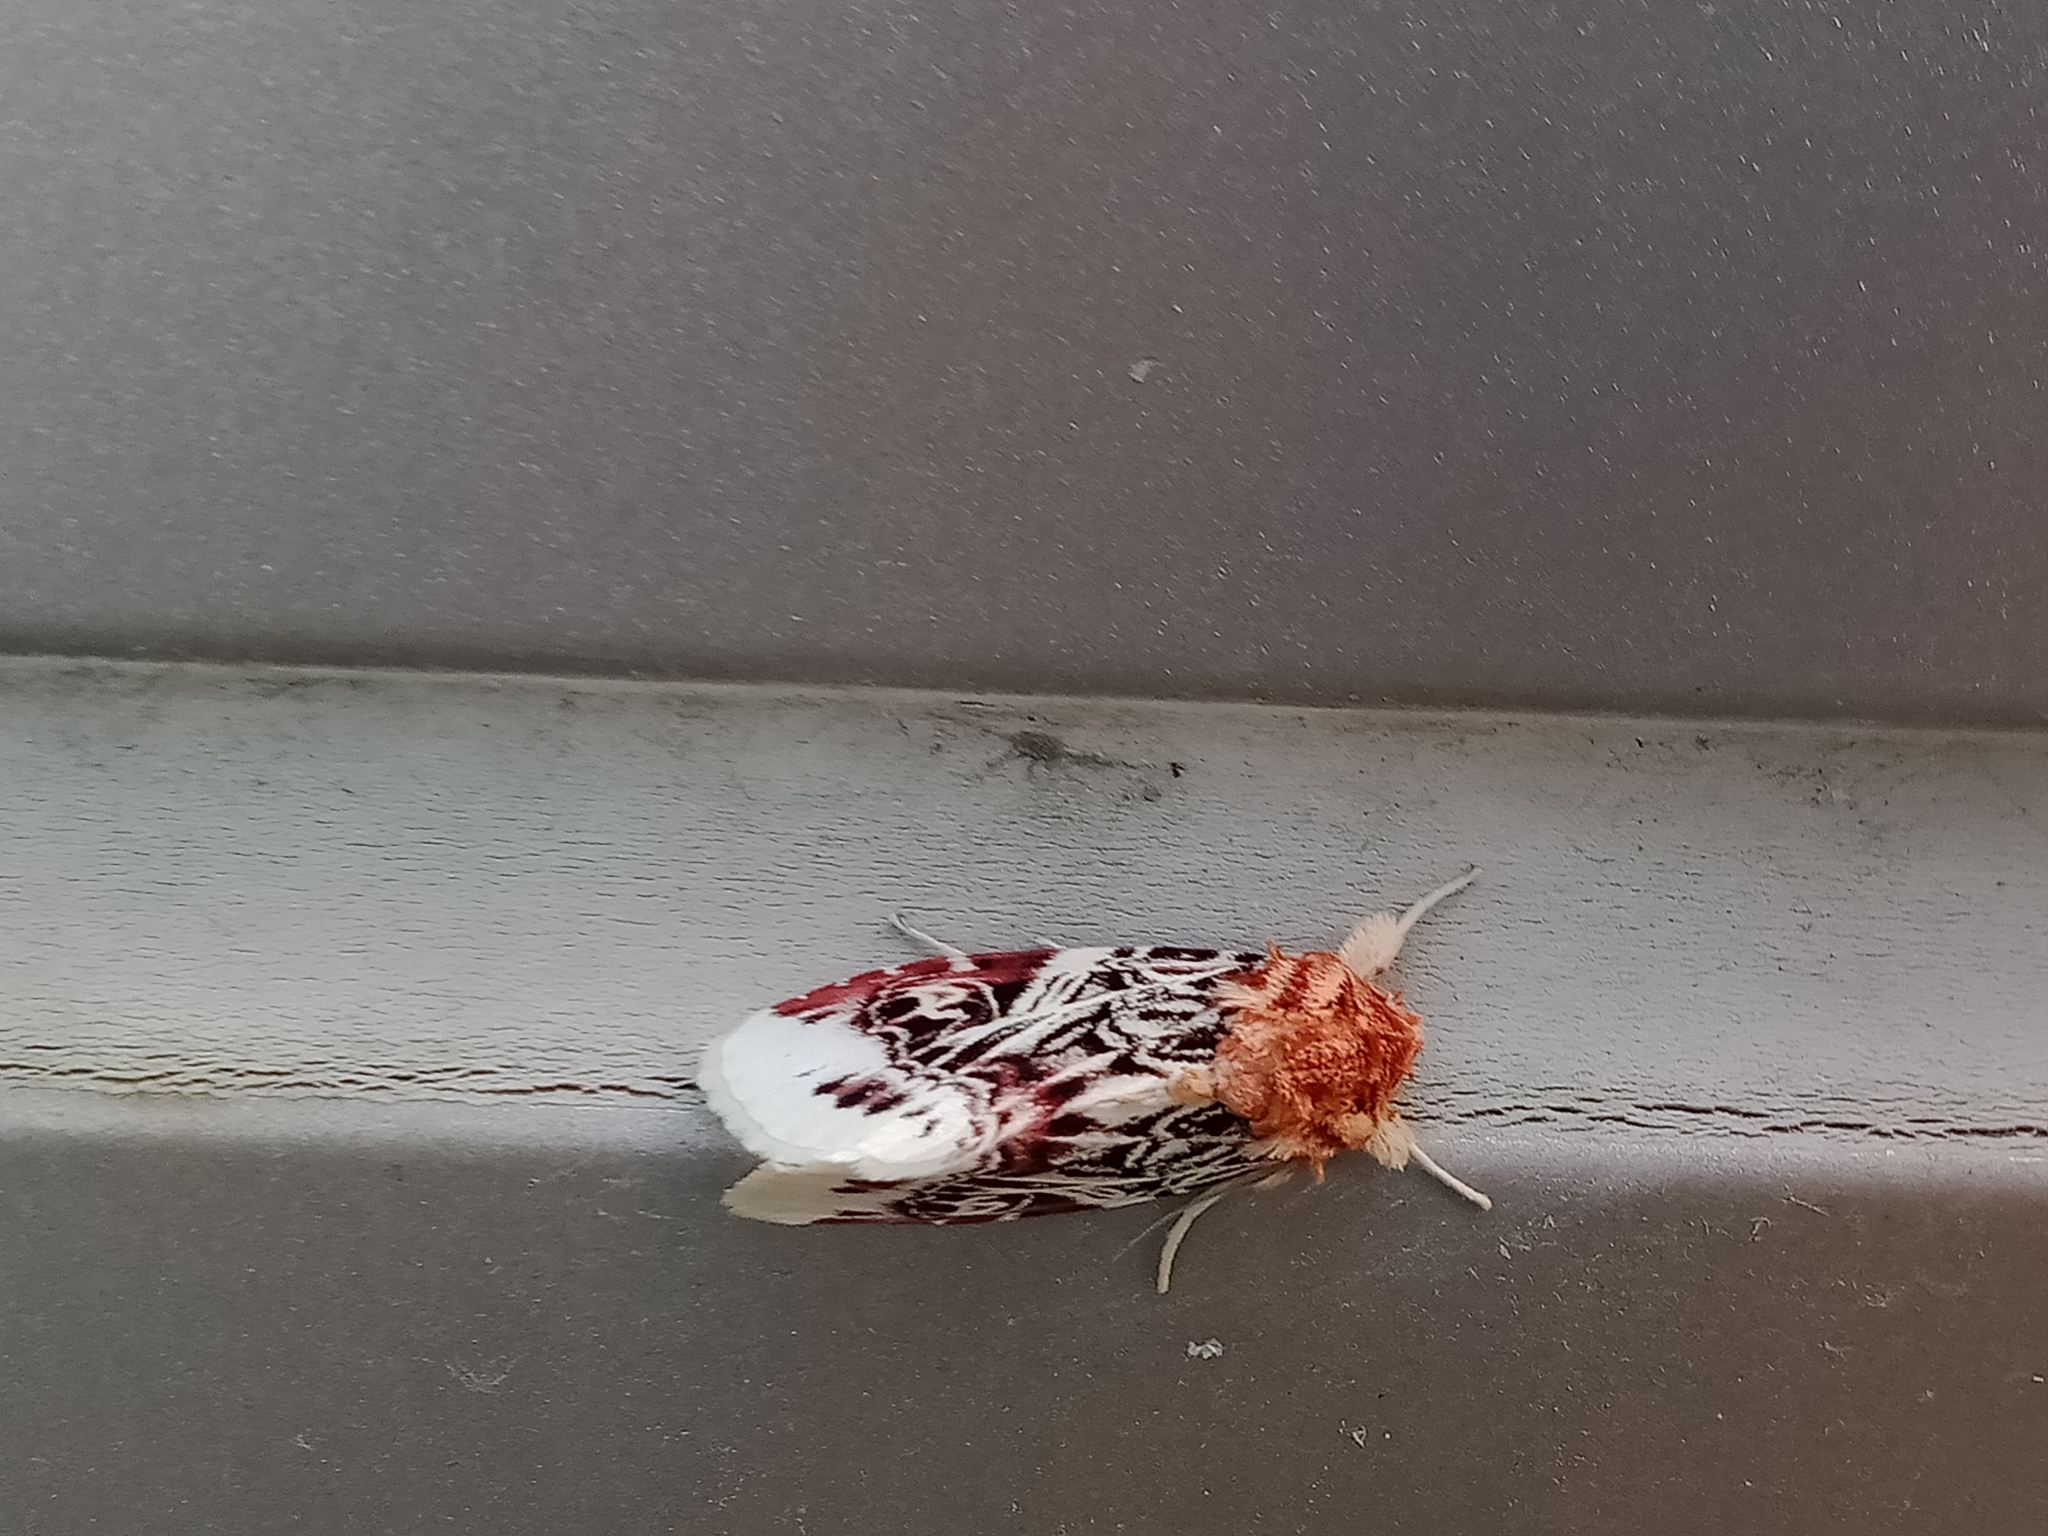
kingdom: Animalia
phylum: Arthropoda
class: Insecta
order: Lepidoptera
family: Noctuidae
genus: Spodoptera
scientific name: Spodoptera picta
